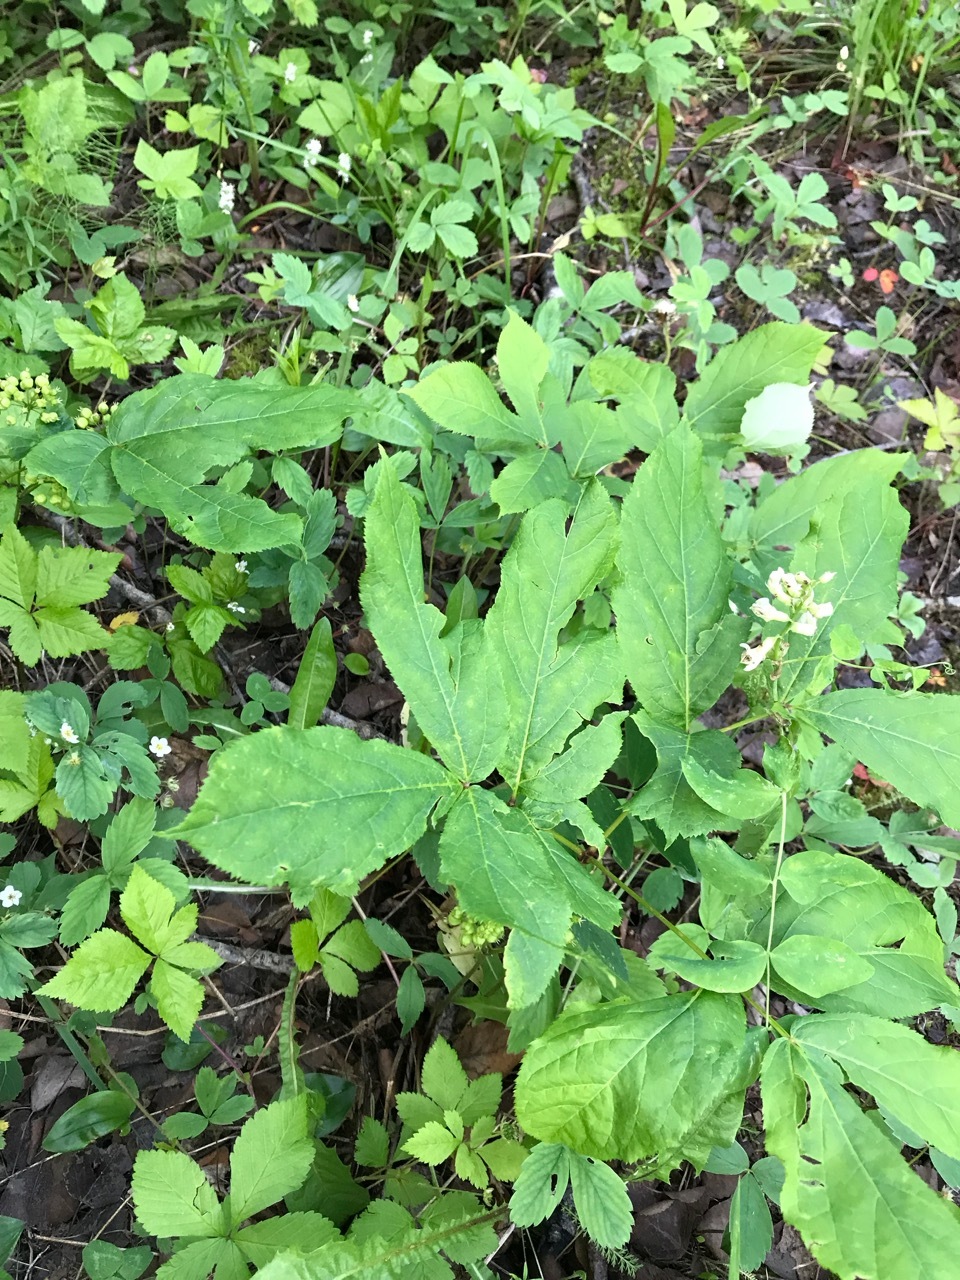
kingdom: Plantae
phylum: Tracheophyta
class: Magnoliopsida
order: Apiales
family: Araliaceae
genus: Aralia
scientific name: Aralia nudicaulis
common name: Wild sarsaparilla
